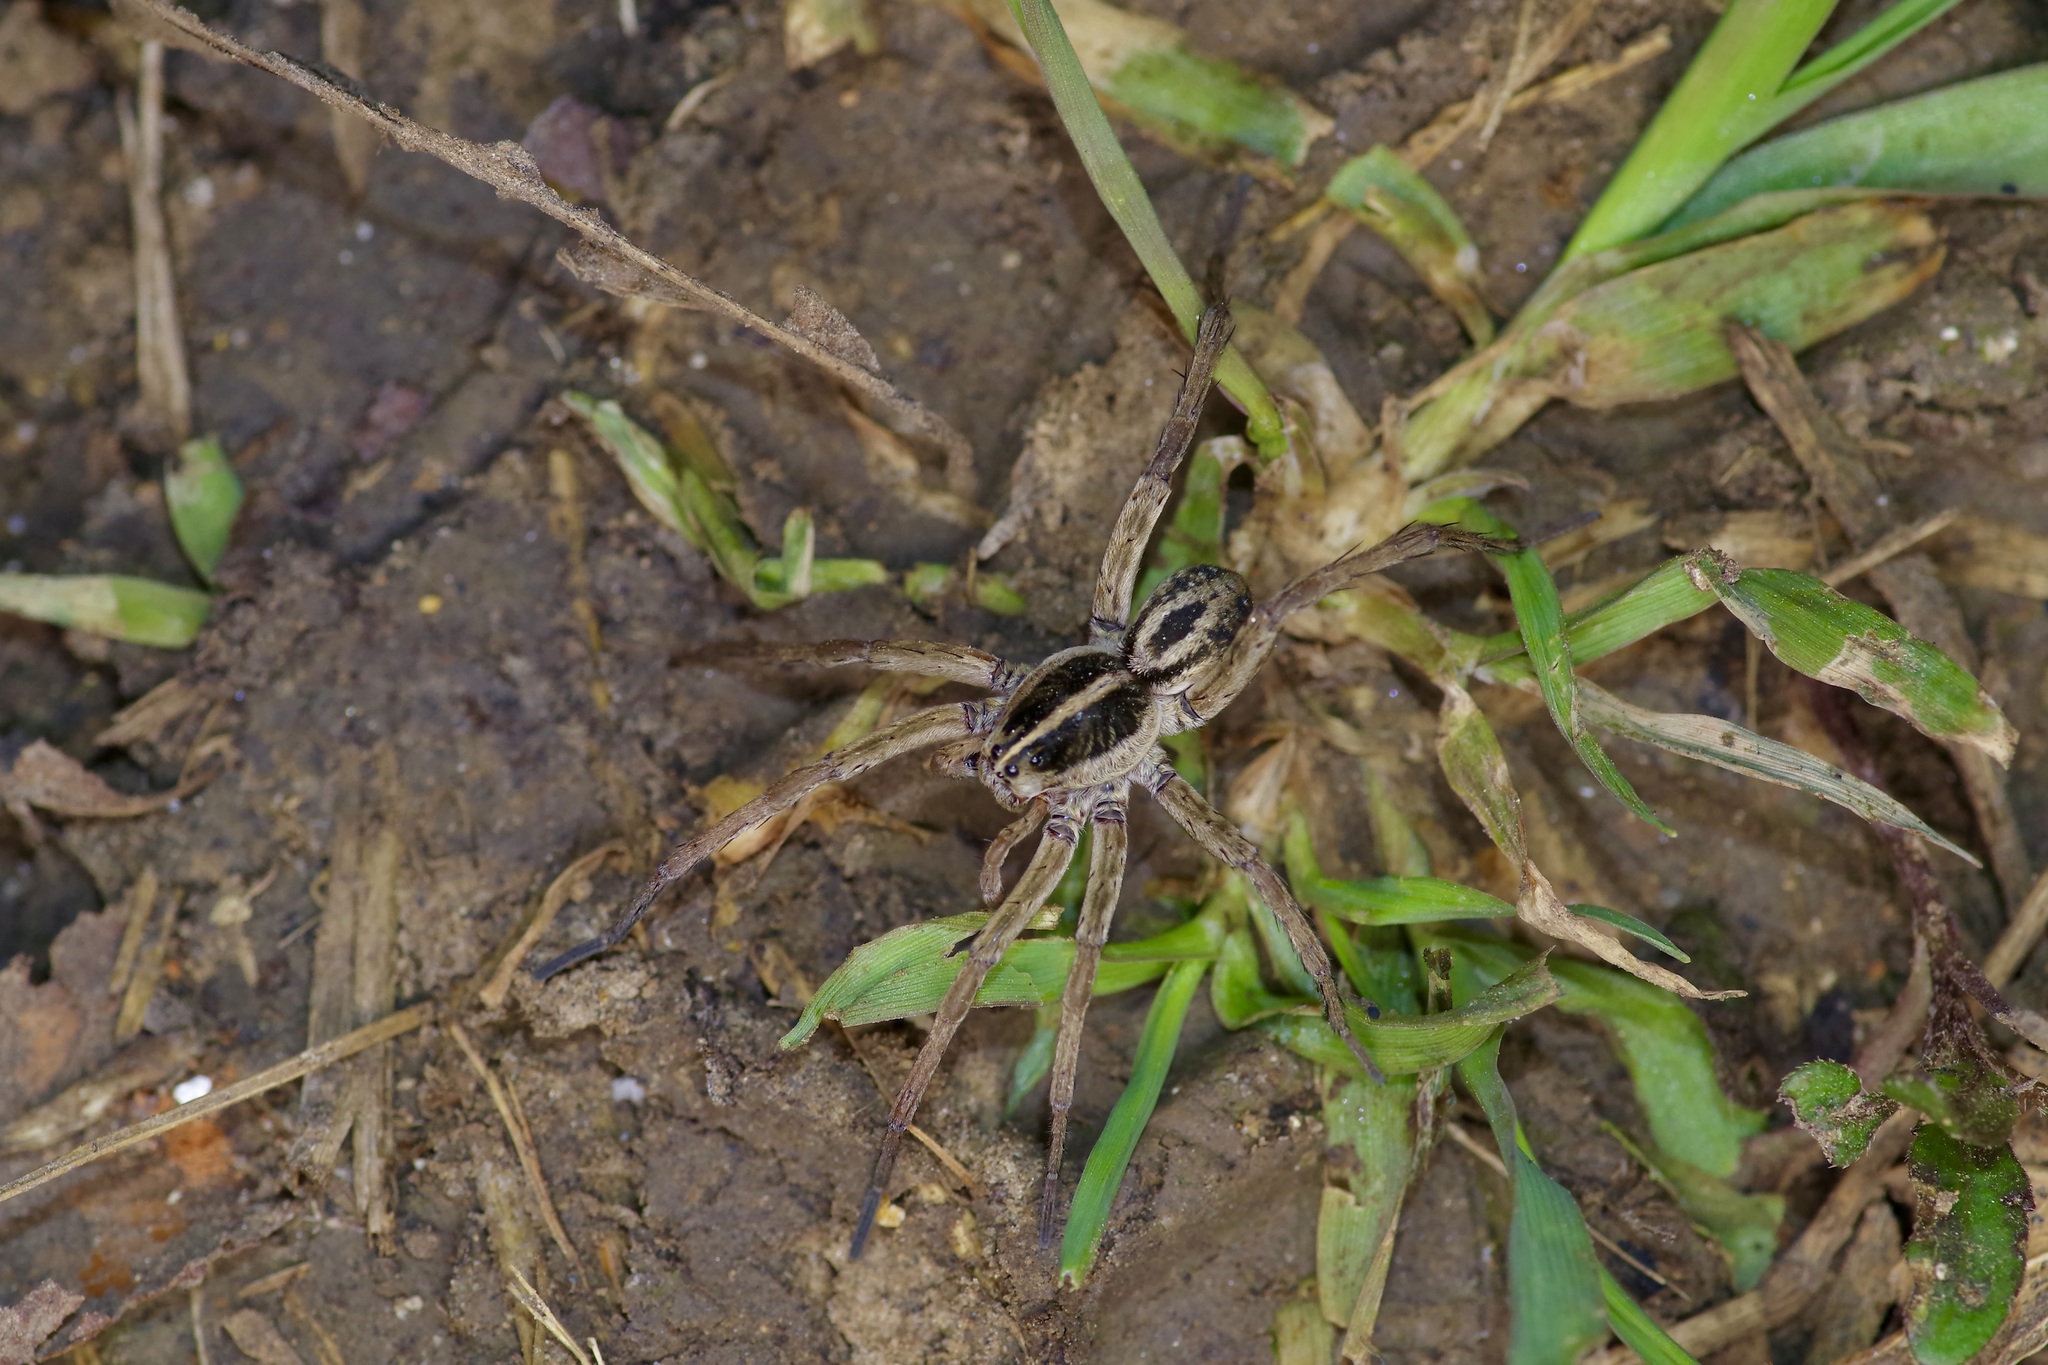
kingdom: Animalia
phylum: Arthropoda
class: Arachnida
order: Araneae
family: Lycosidae
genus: Tigrosa
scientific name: Tigrosa annexa
